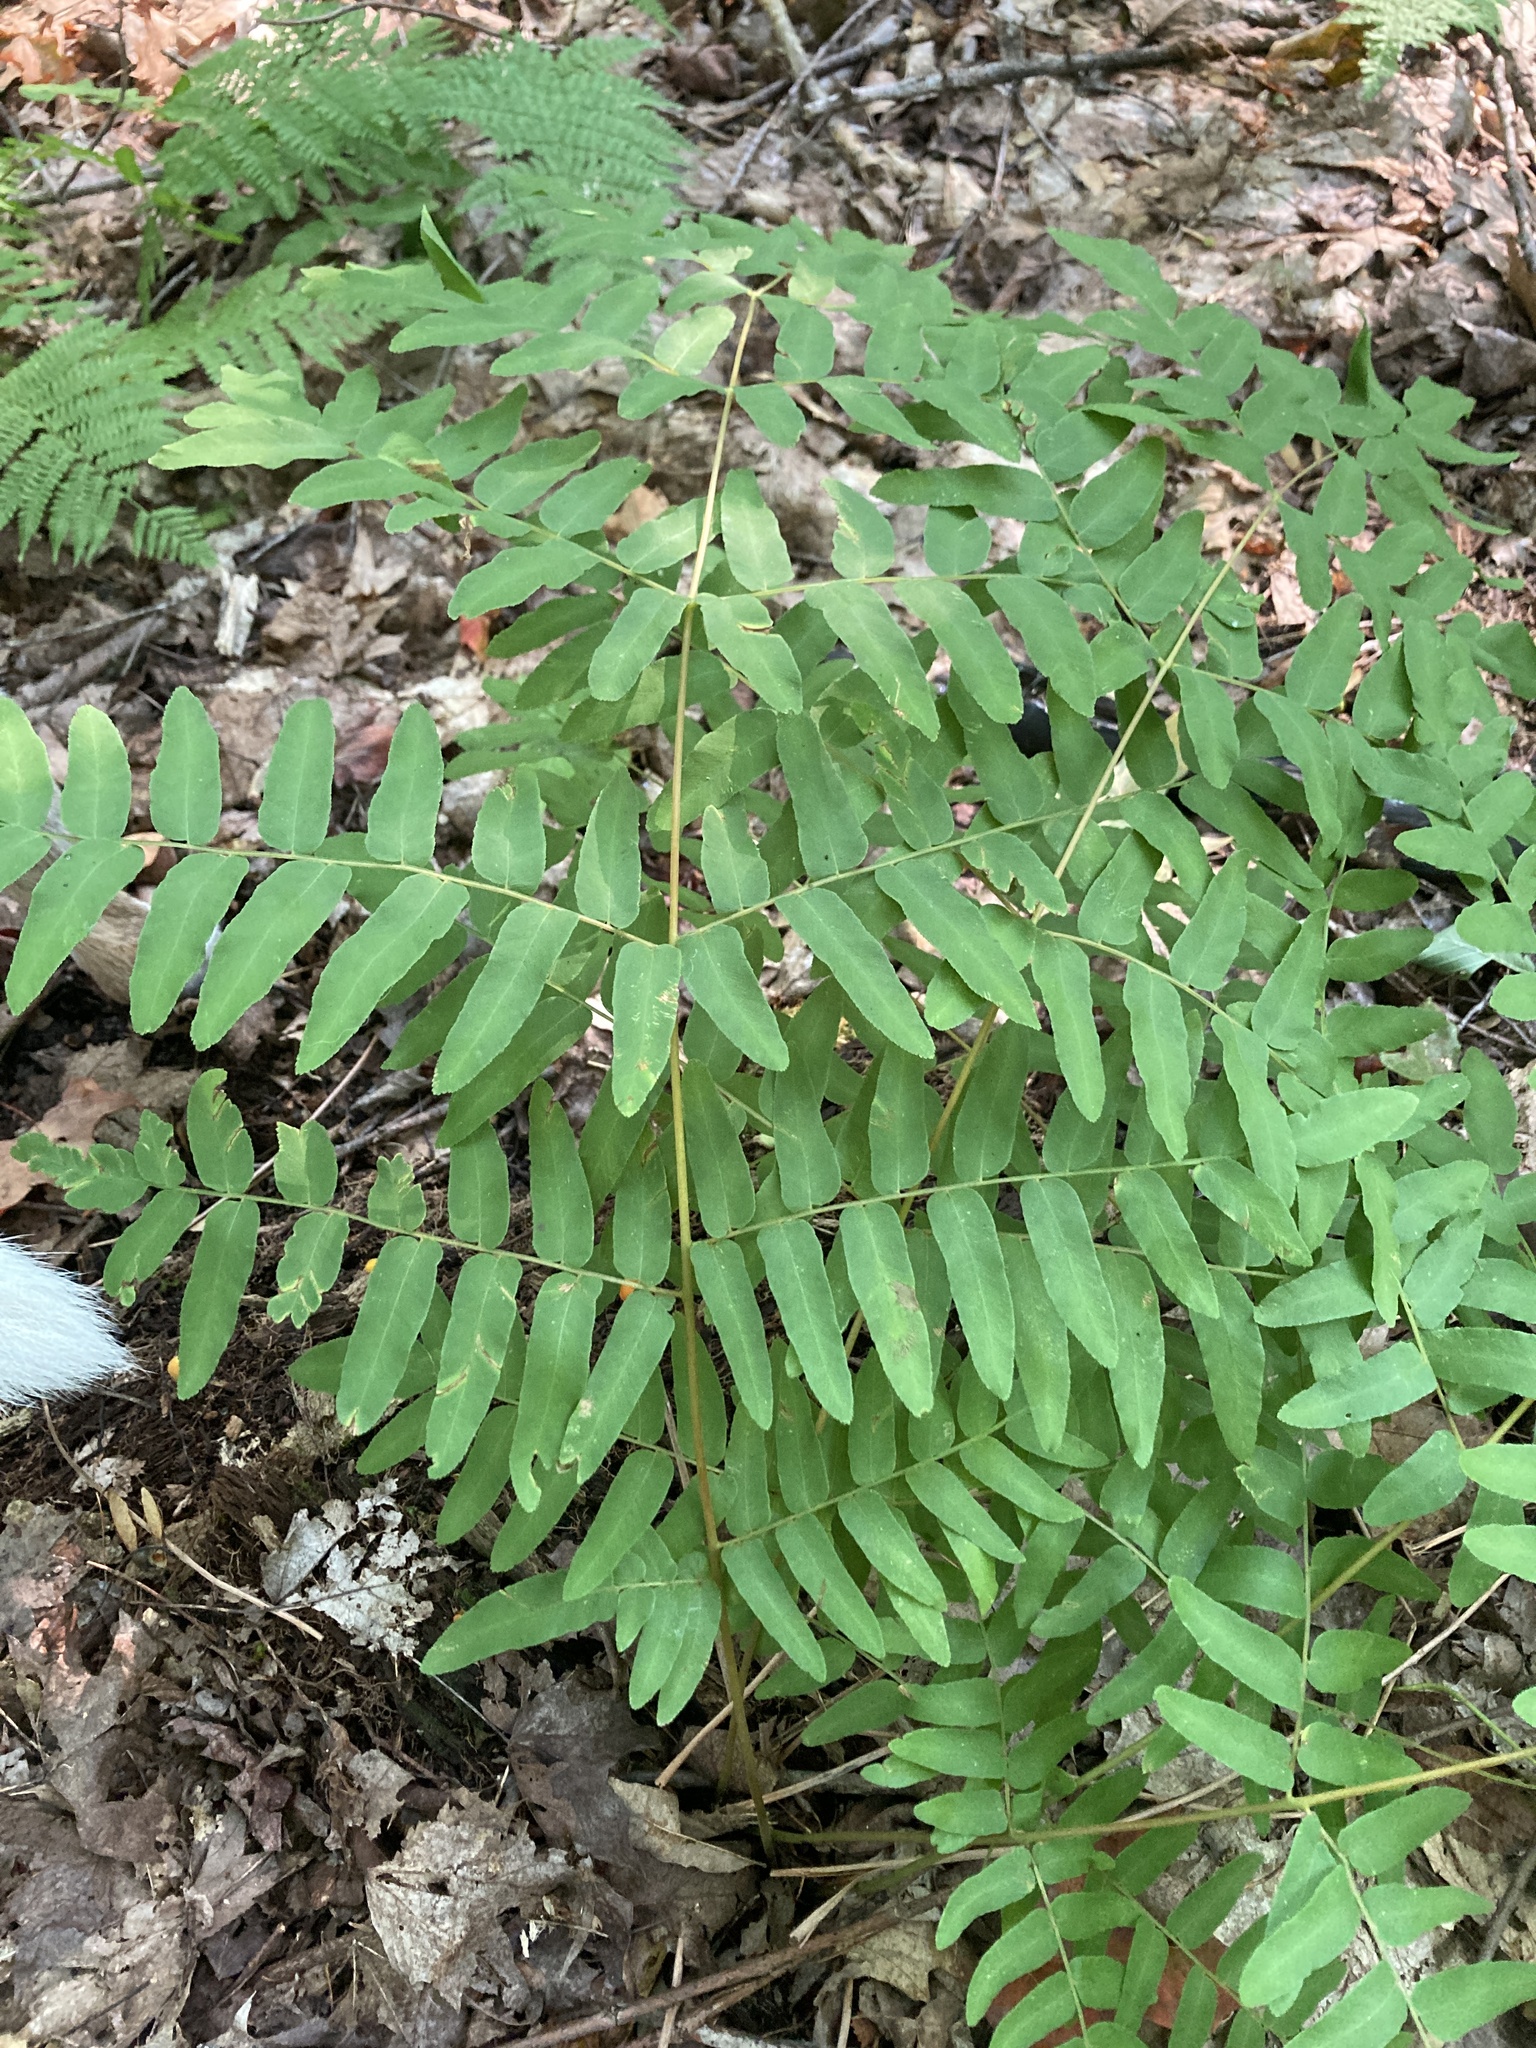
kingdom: Plantae
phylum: Tracheophyta
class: Polypodiopsida
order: Osmundales
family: Osmundaceae
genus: Osmunda
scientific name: Osmunda spectabilis
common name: American royal fern
